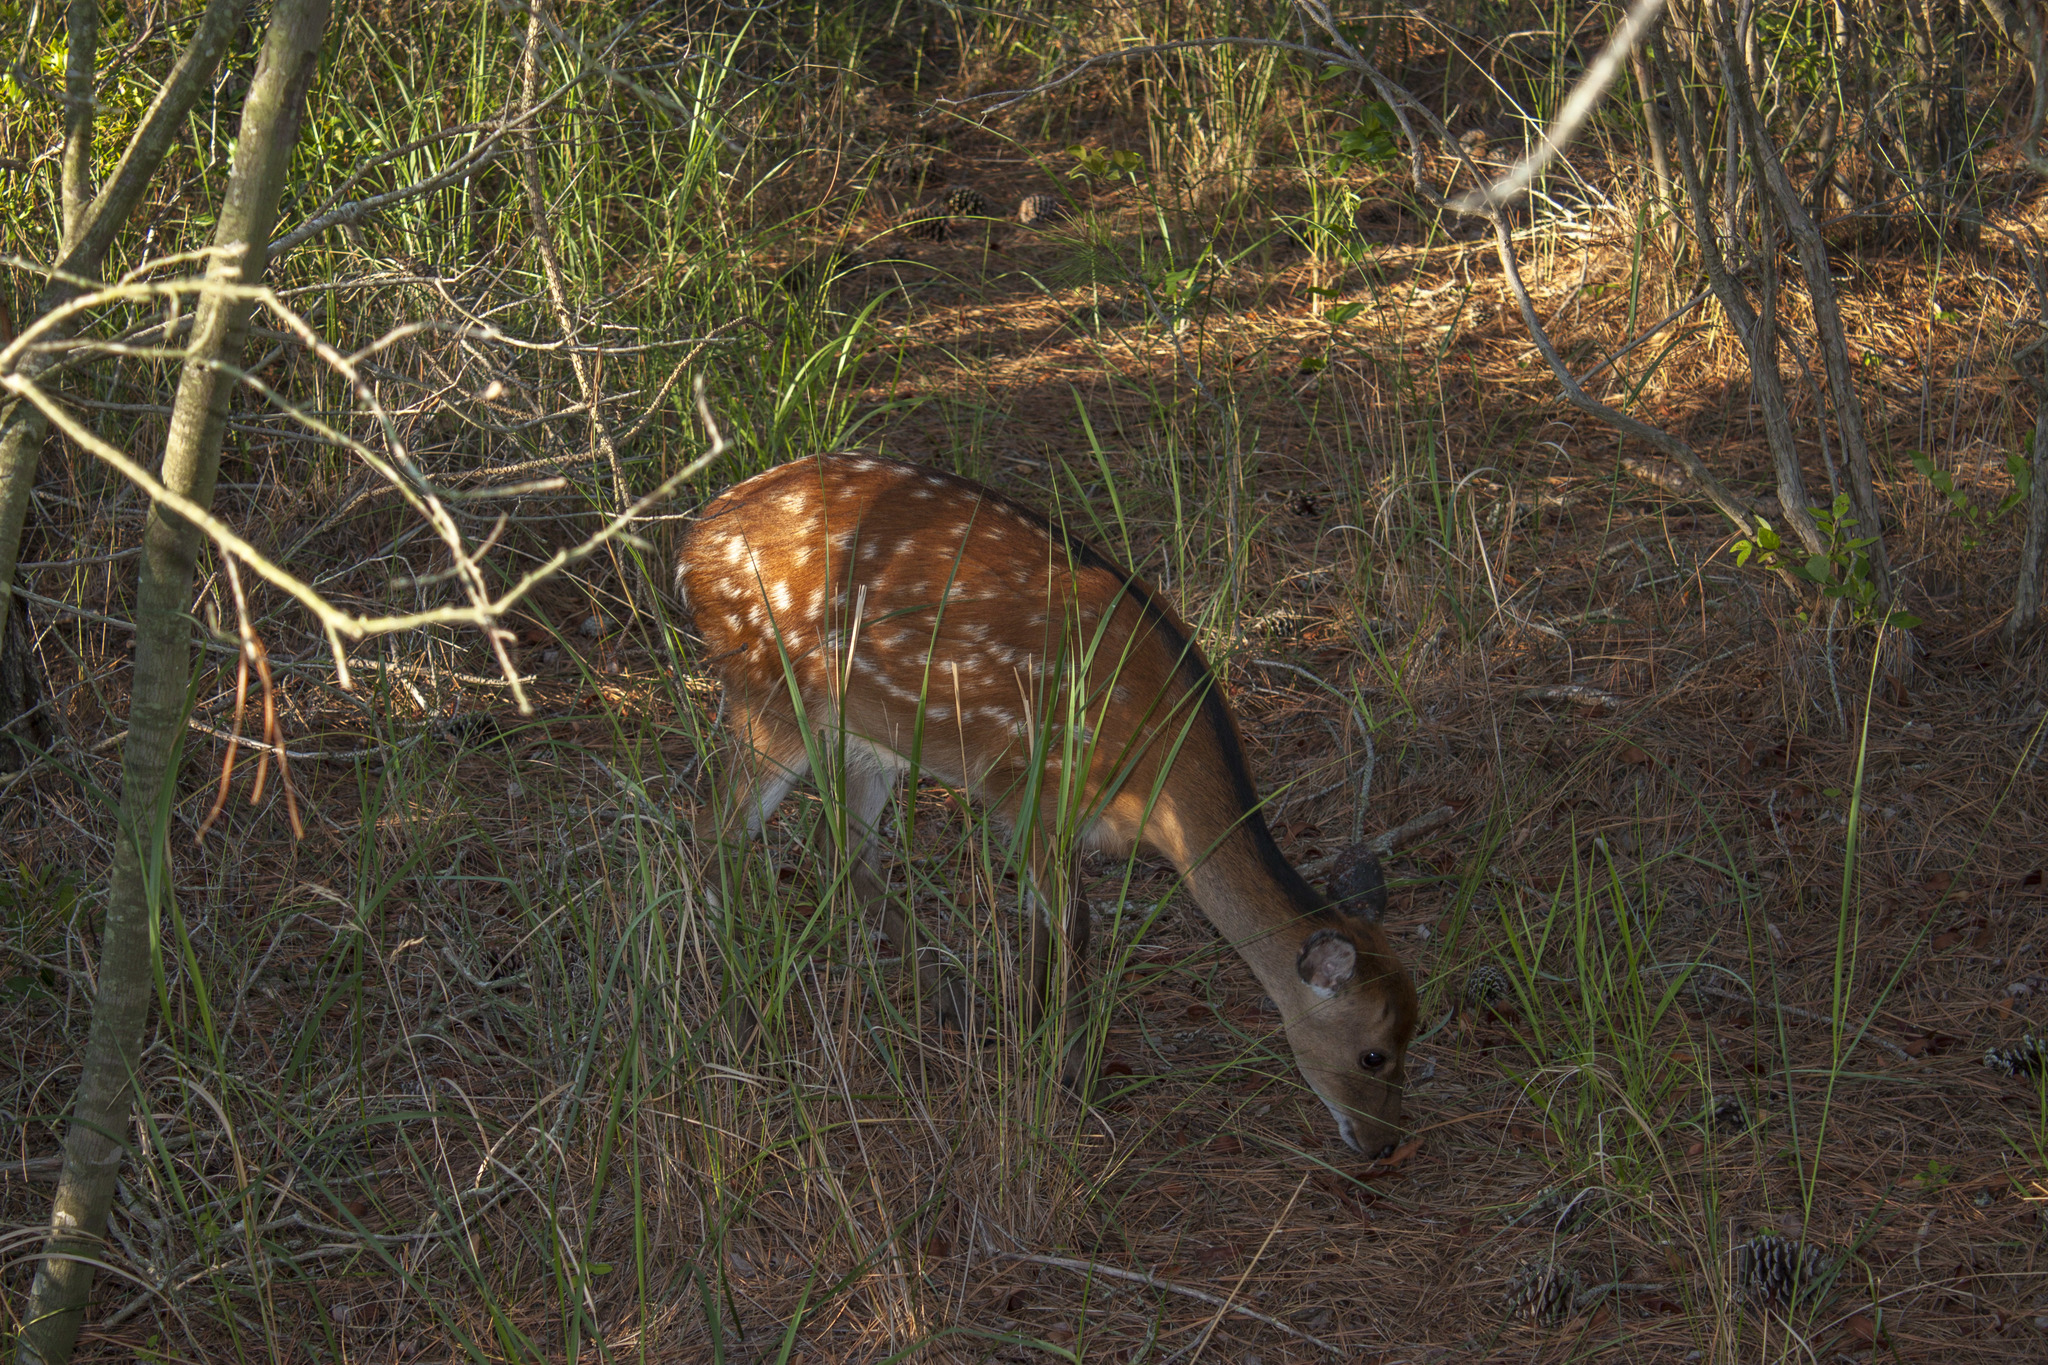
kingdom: Animalia
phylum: Chordata
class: Mammalia
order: Artiodactyla
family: Cervidae
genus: Cervus
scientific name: Cervus nippon
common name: Sika deer
